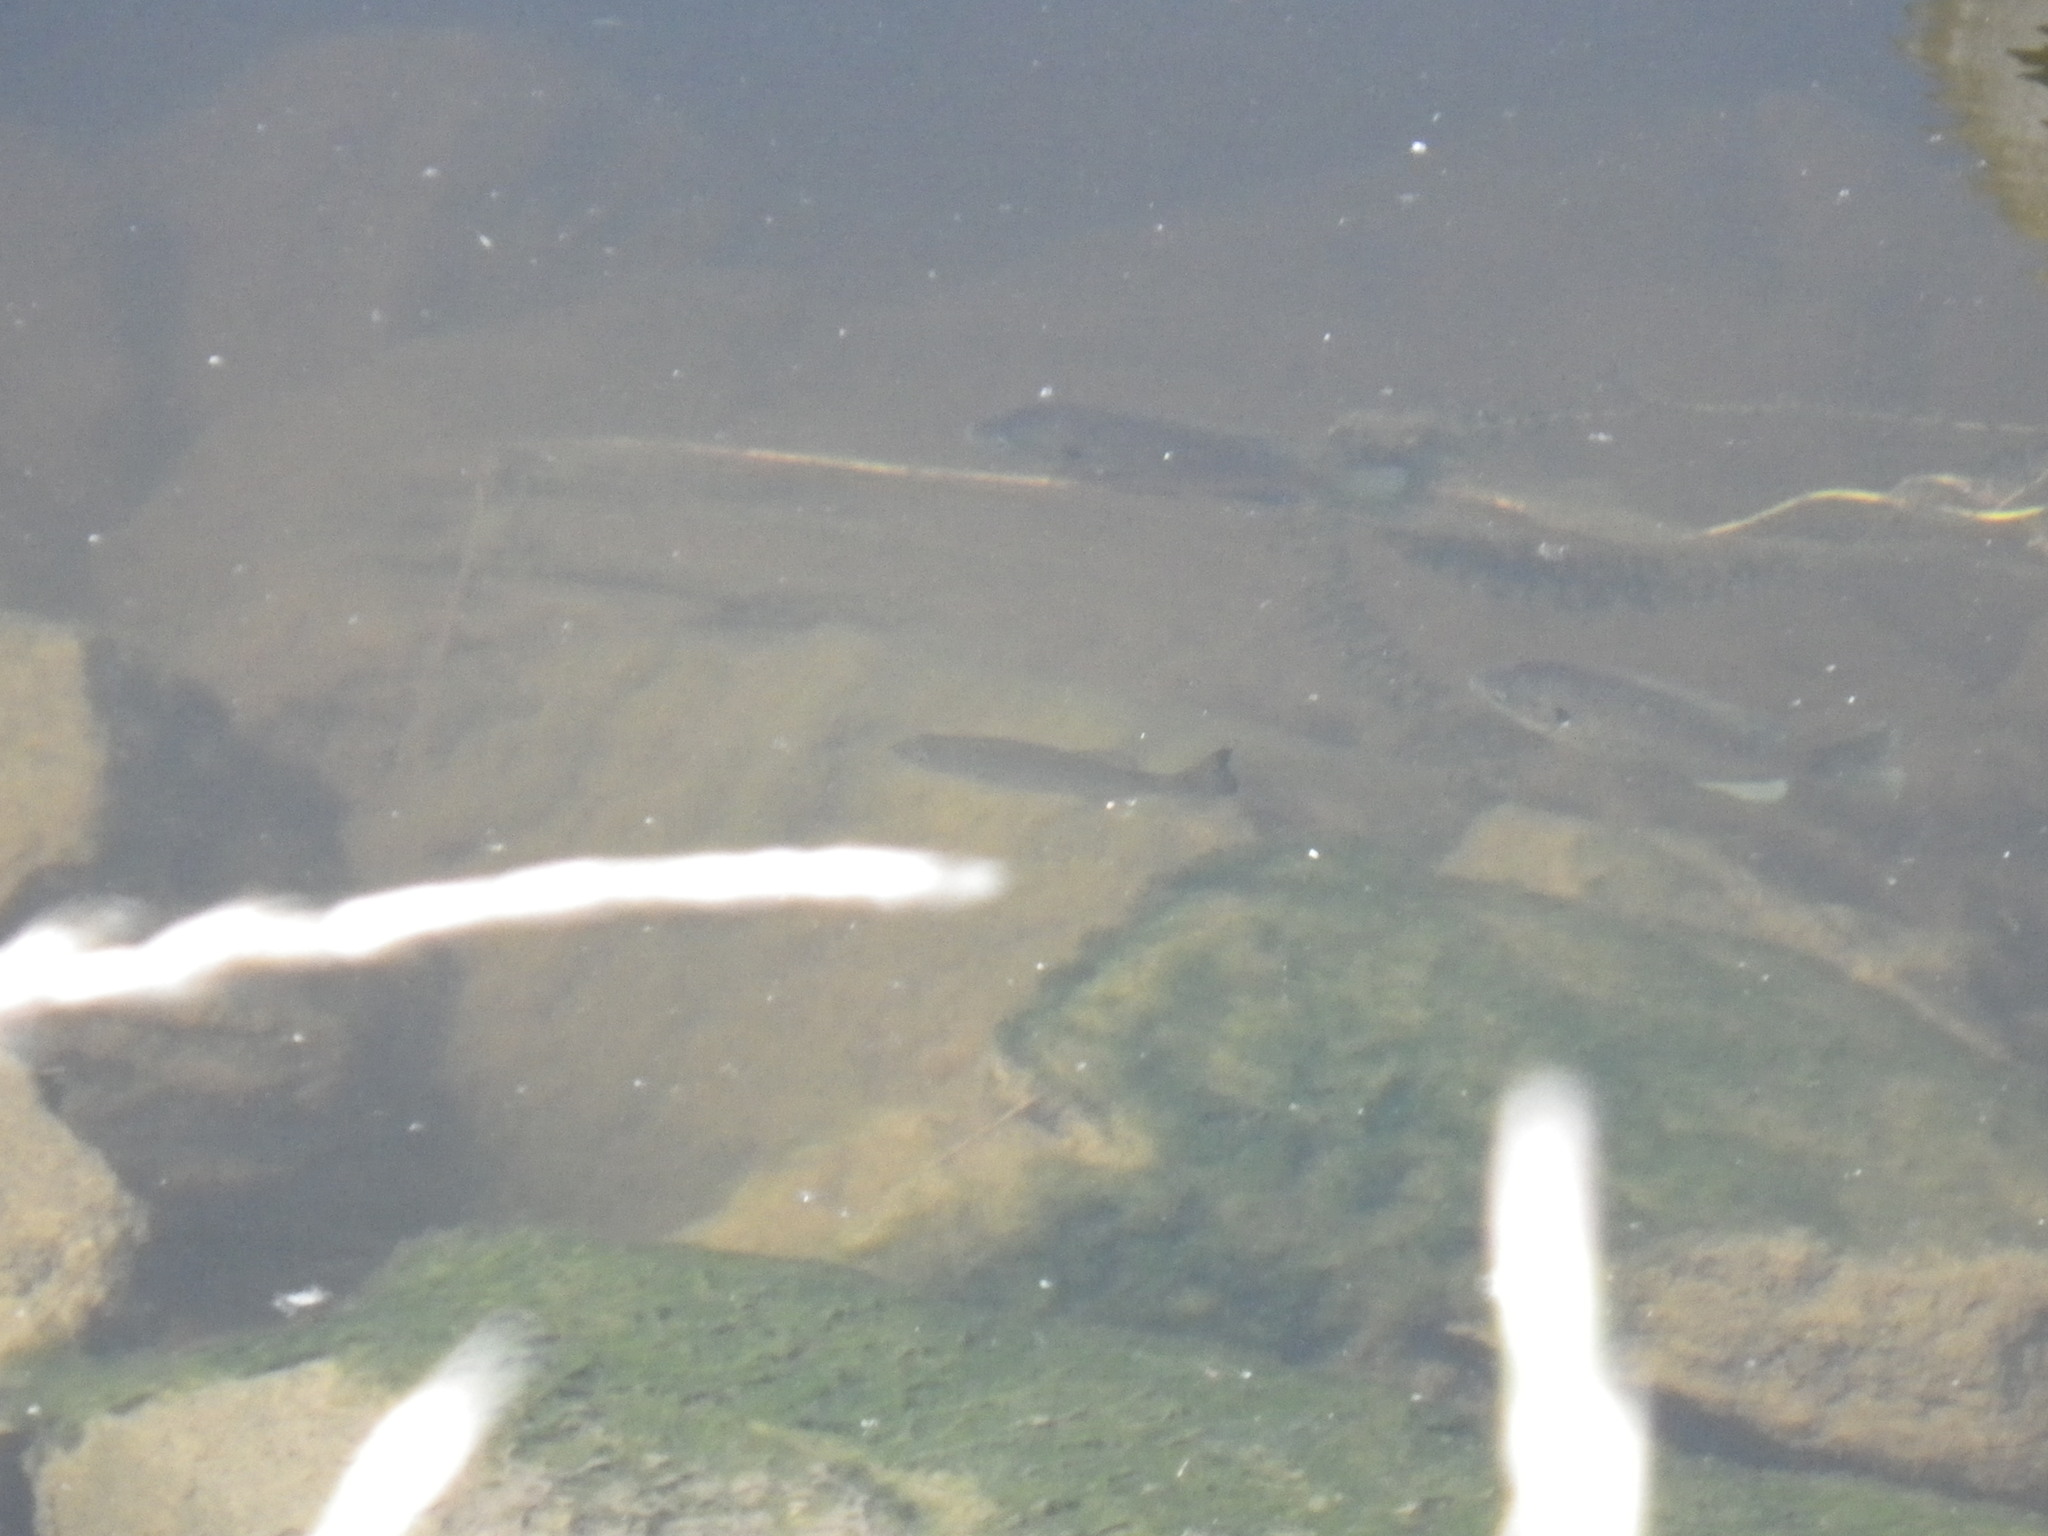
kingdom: Animalia
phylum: Chordata
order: Perciformes
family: Centrarchidae
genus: Micropterus
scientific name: Micropterus
